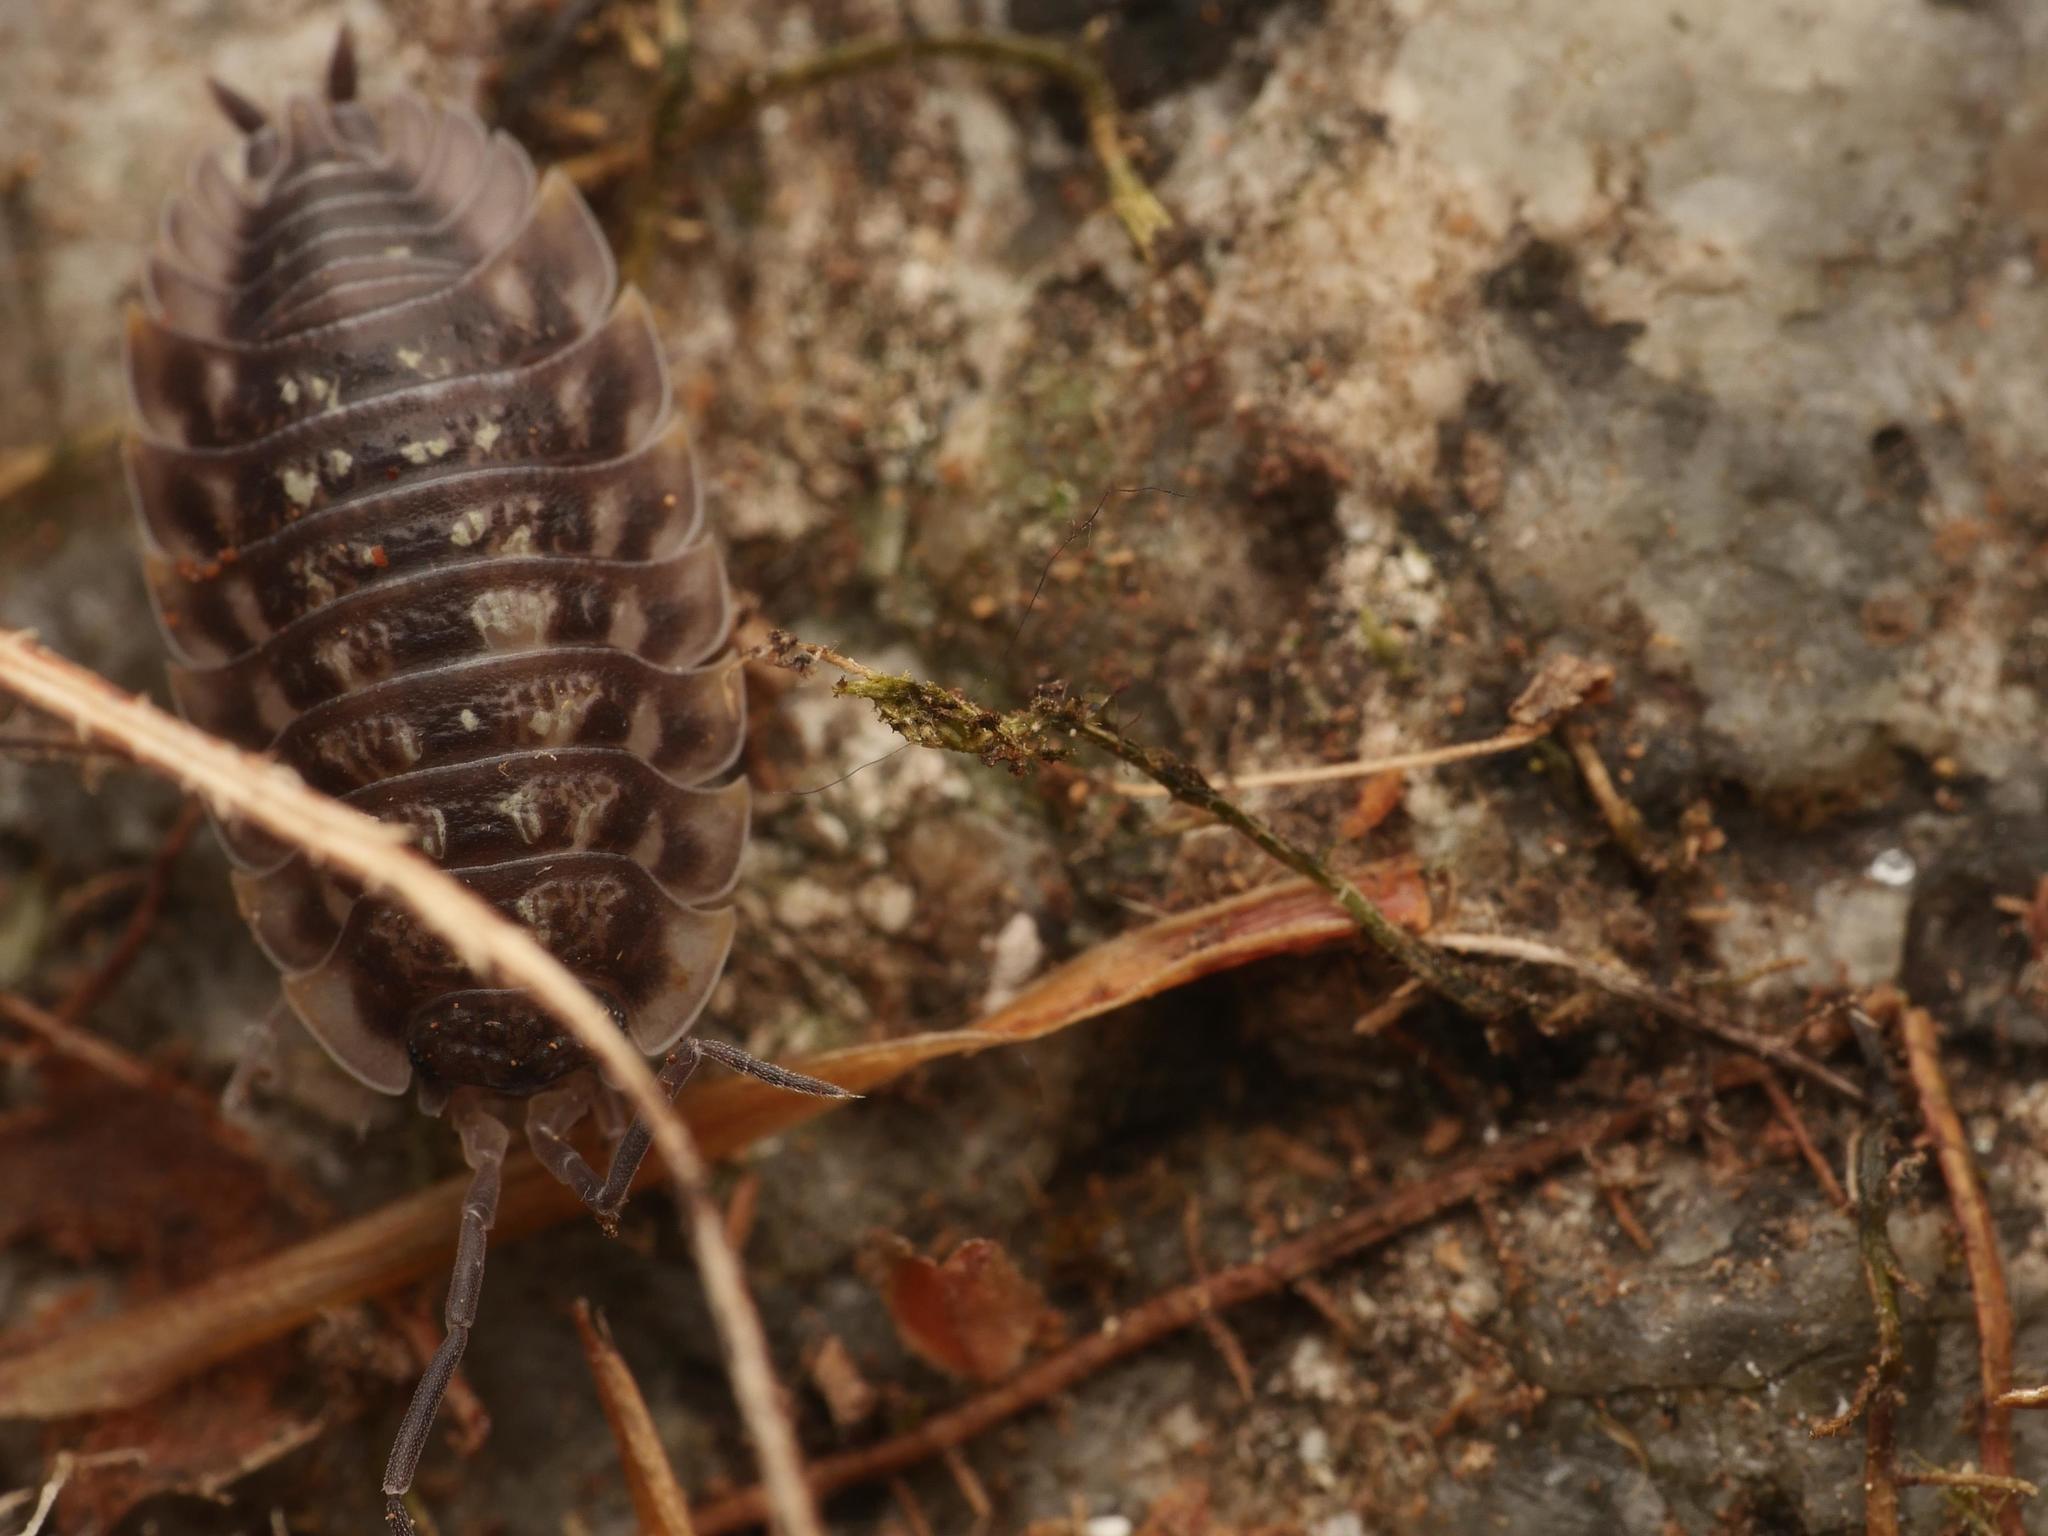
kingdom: Animalia
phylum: Arthropoda
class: Malacostraca
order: Isopoda
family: Oniscidae
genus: Oniscus
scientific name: Oniscus asellus
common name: Common shiny woodlouse
